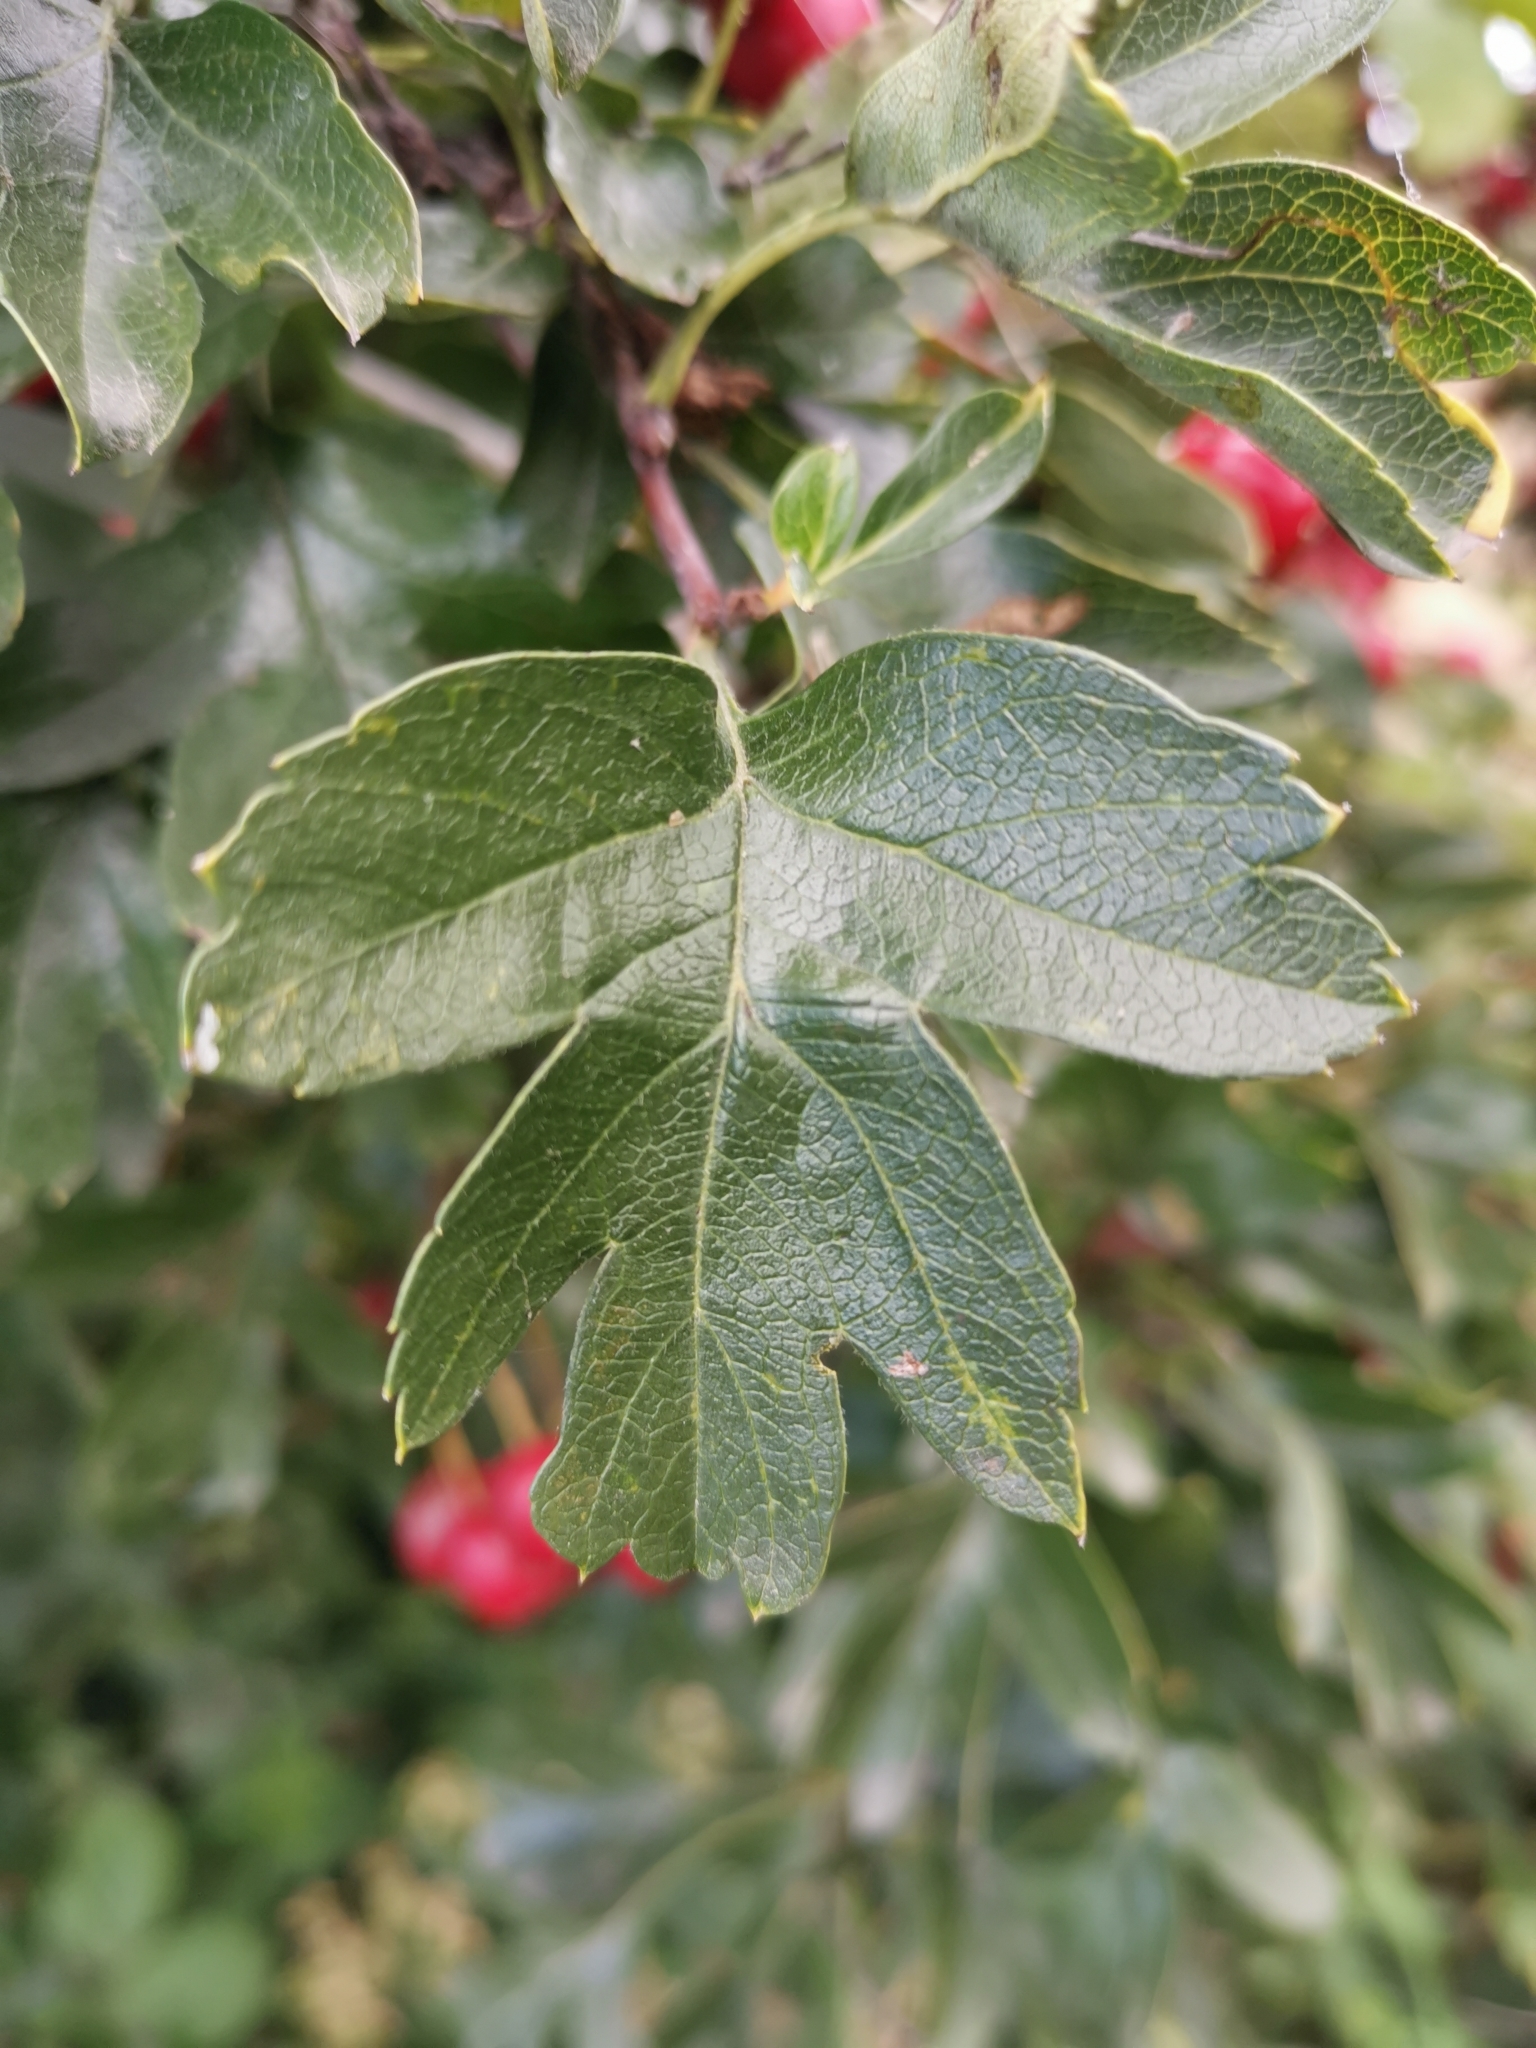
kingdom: Plantae
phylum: Tracheophyta
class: Magnoliopsida
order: Rosales
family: Rosaceae
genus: Crataegus
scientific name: Crataegus monogyna
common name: Hawthorn
